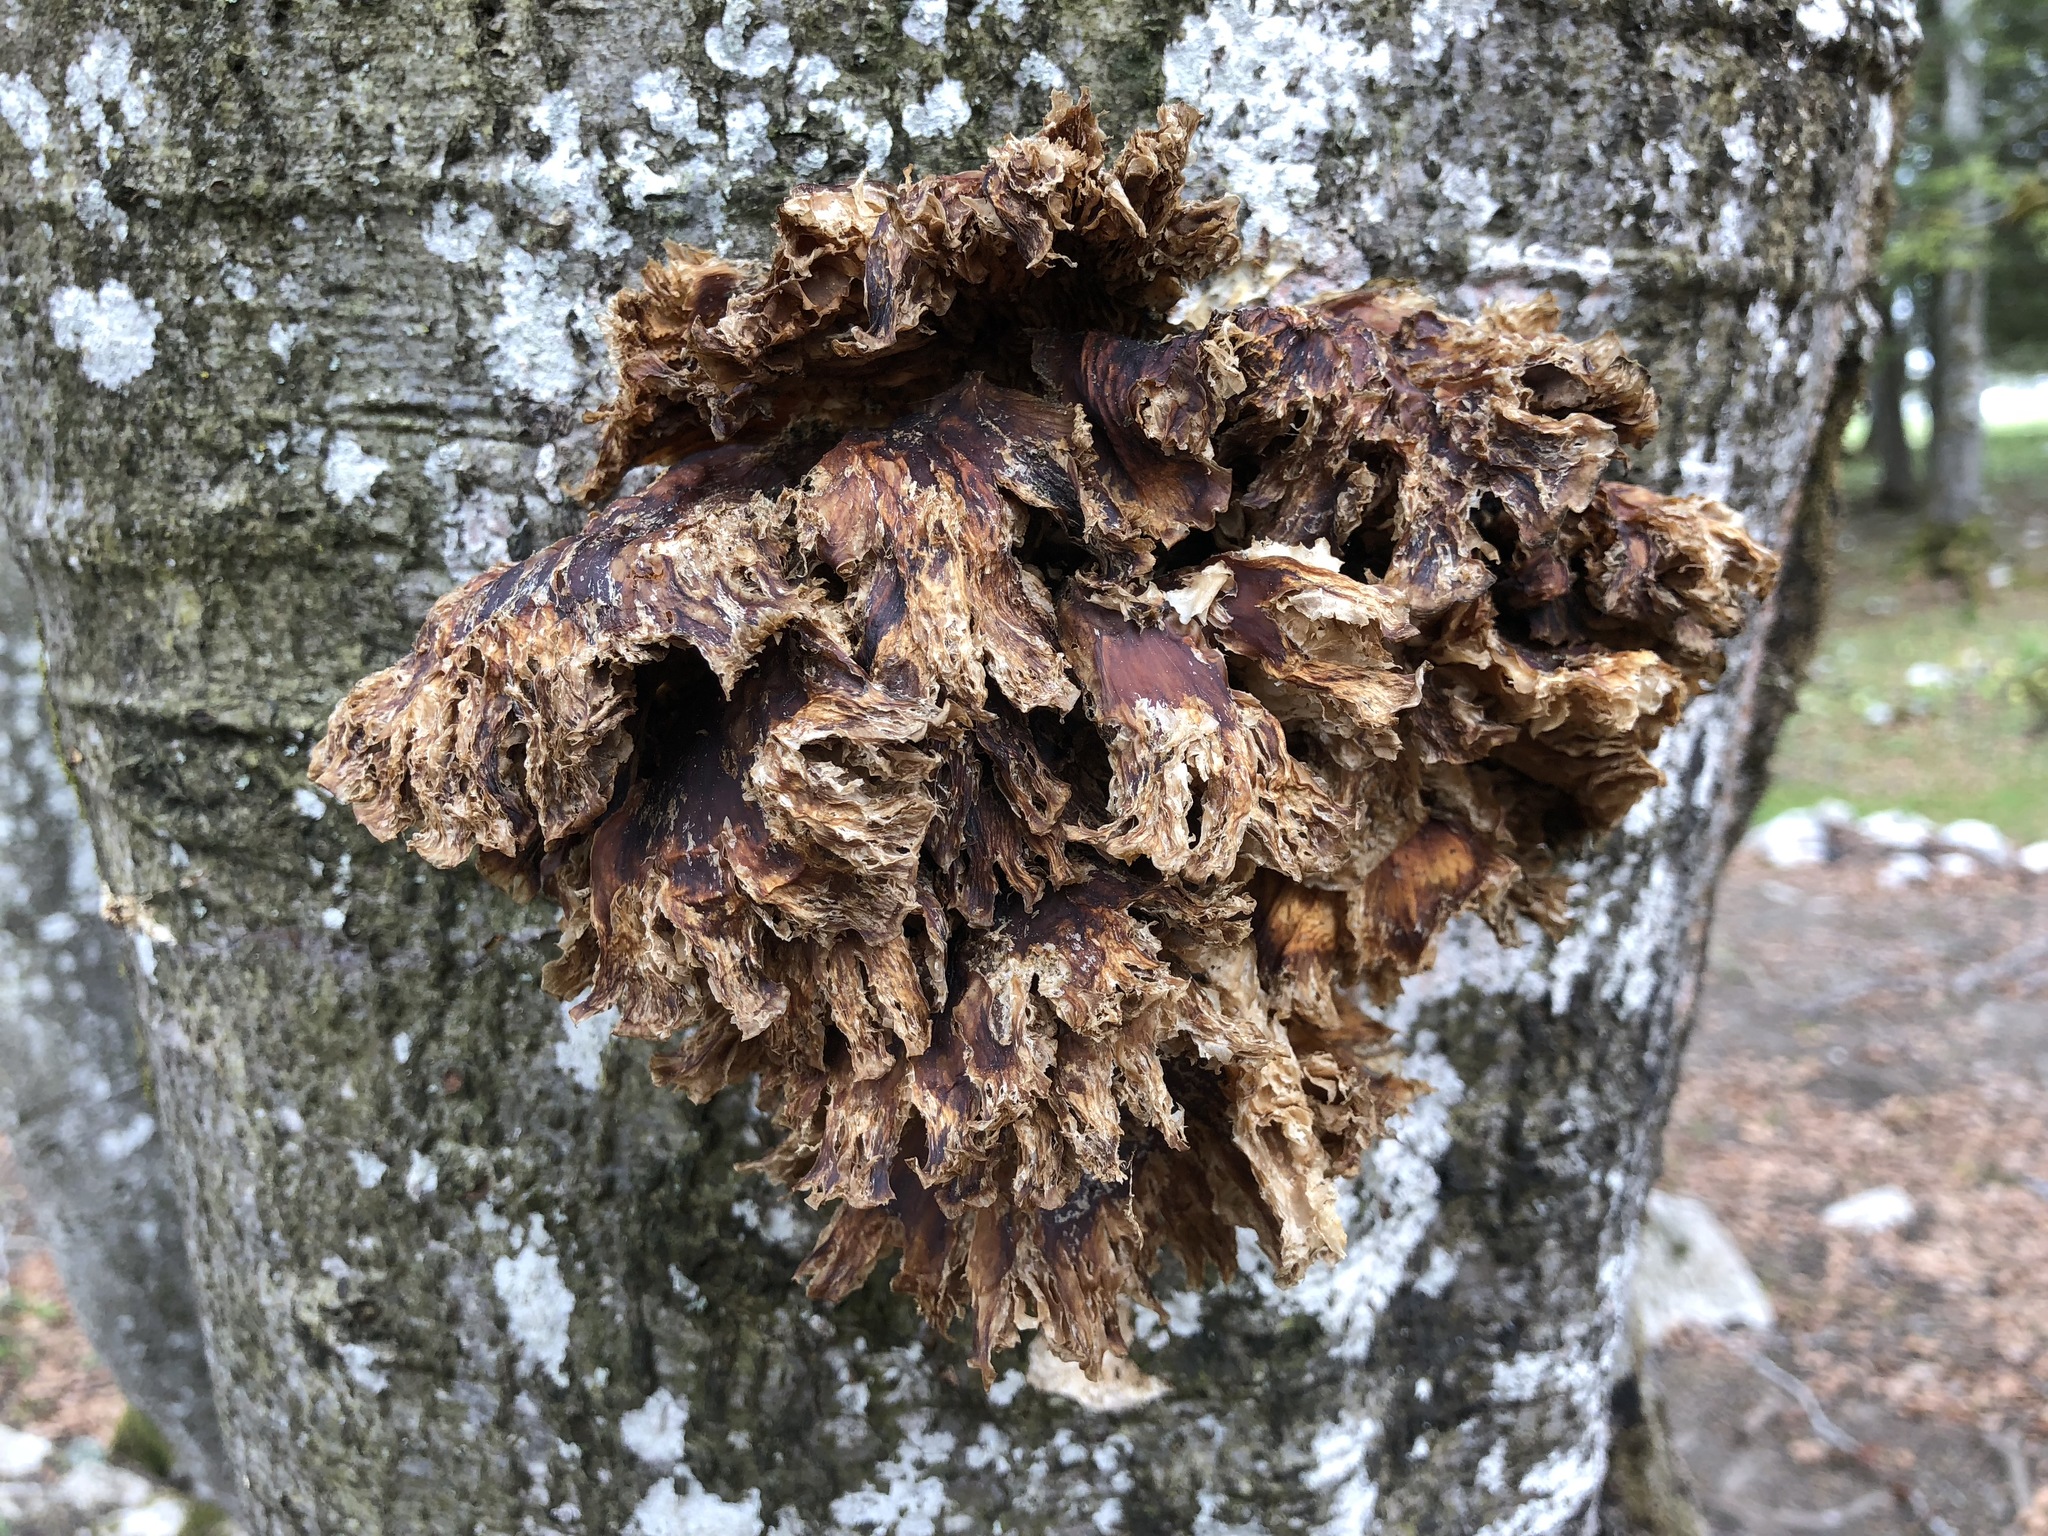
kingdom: Fungi
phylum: Basidiomycota
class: Agaricomycetes
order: Agaricales
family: Pleurotaceae
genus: Pleurotus
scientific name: Pleurotus
